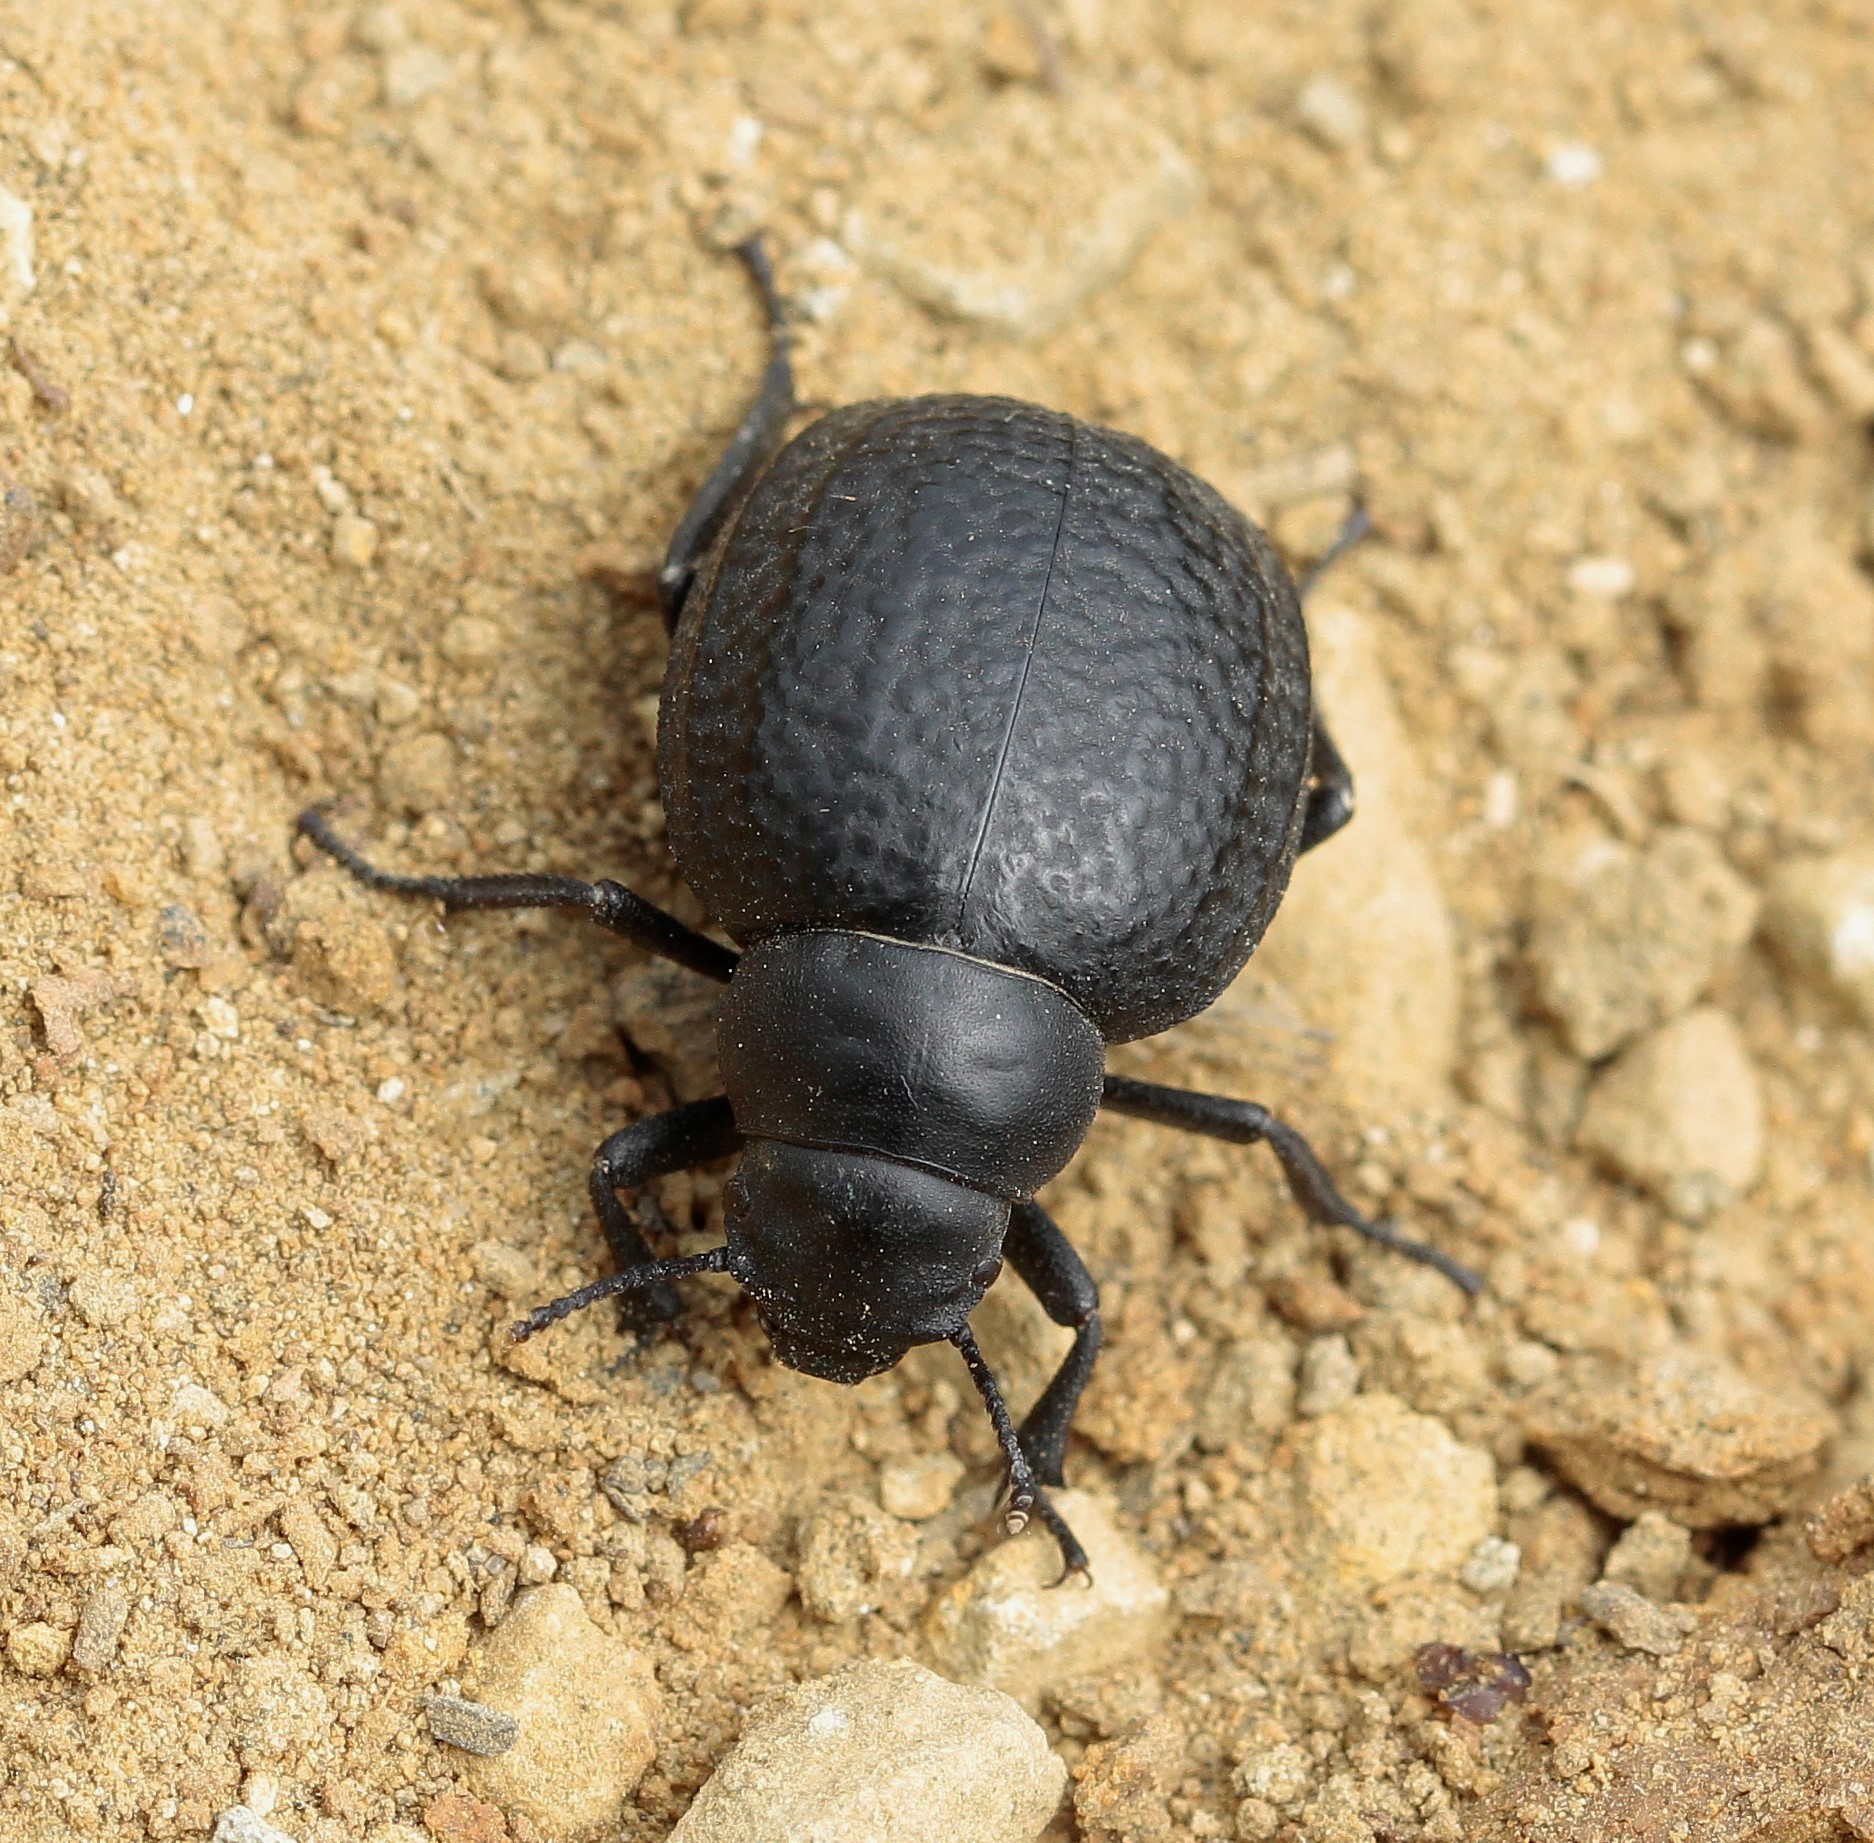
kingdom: Animalia
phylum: Arthropoda
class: Insecta
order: Coleoptera
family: Tenebrionidae
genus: Pimelia
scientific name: Pimelia subglobosa
